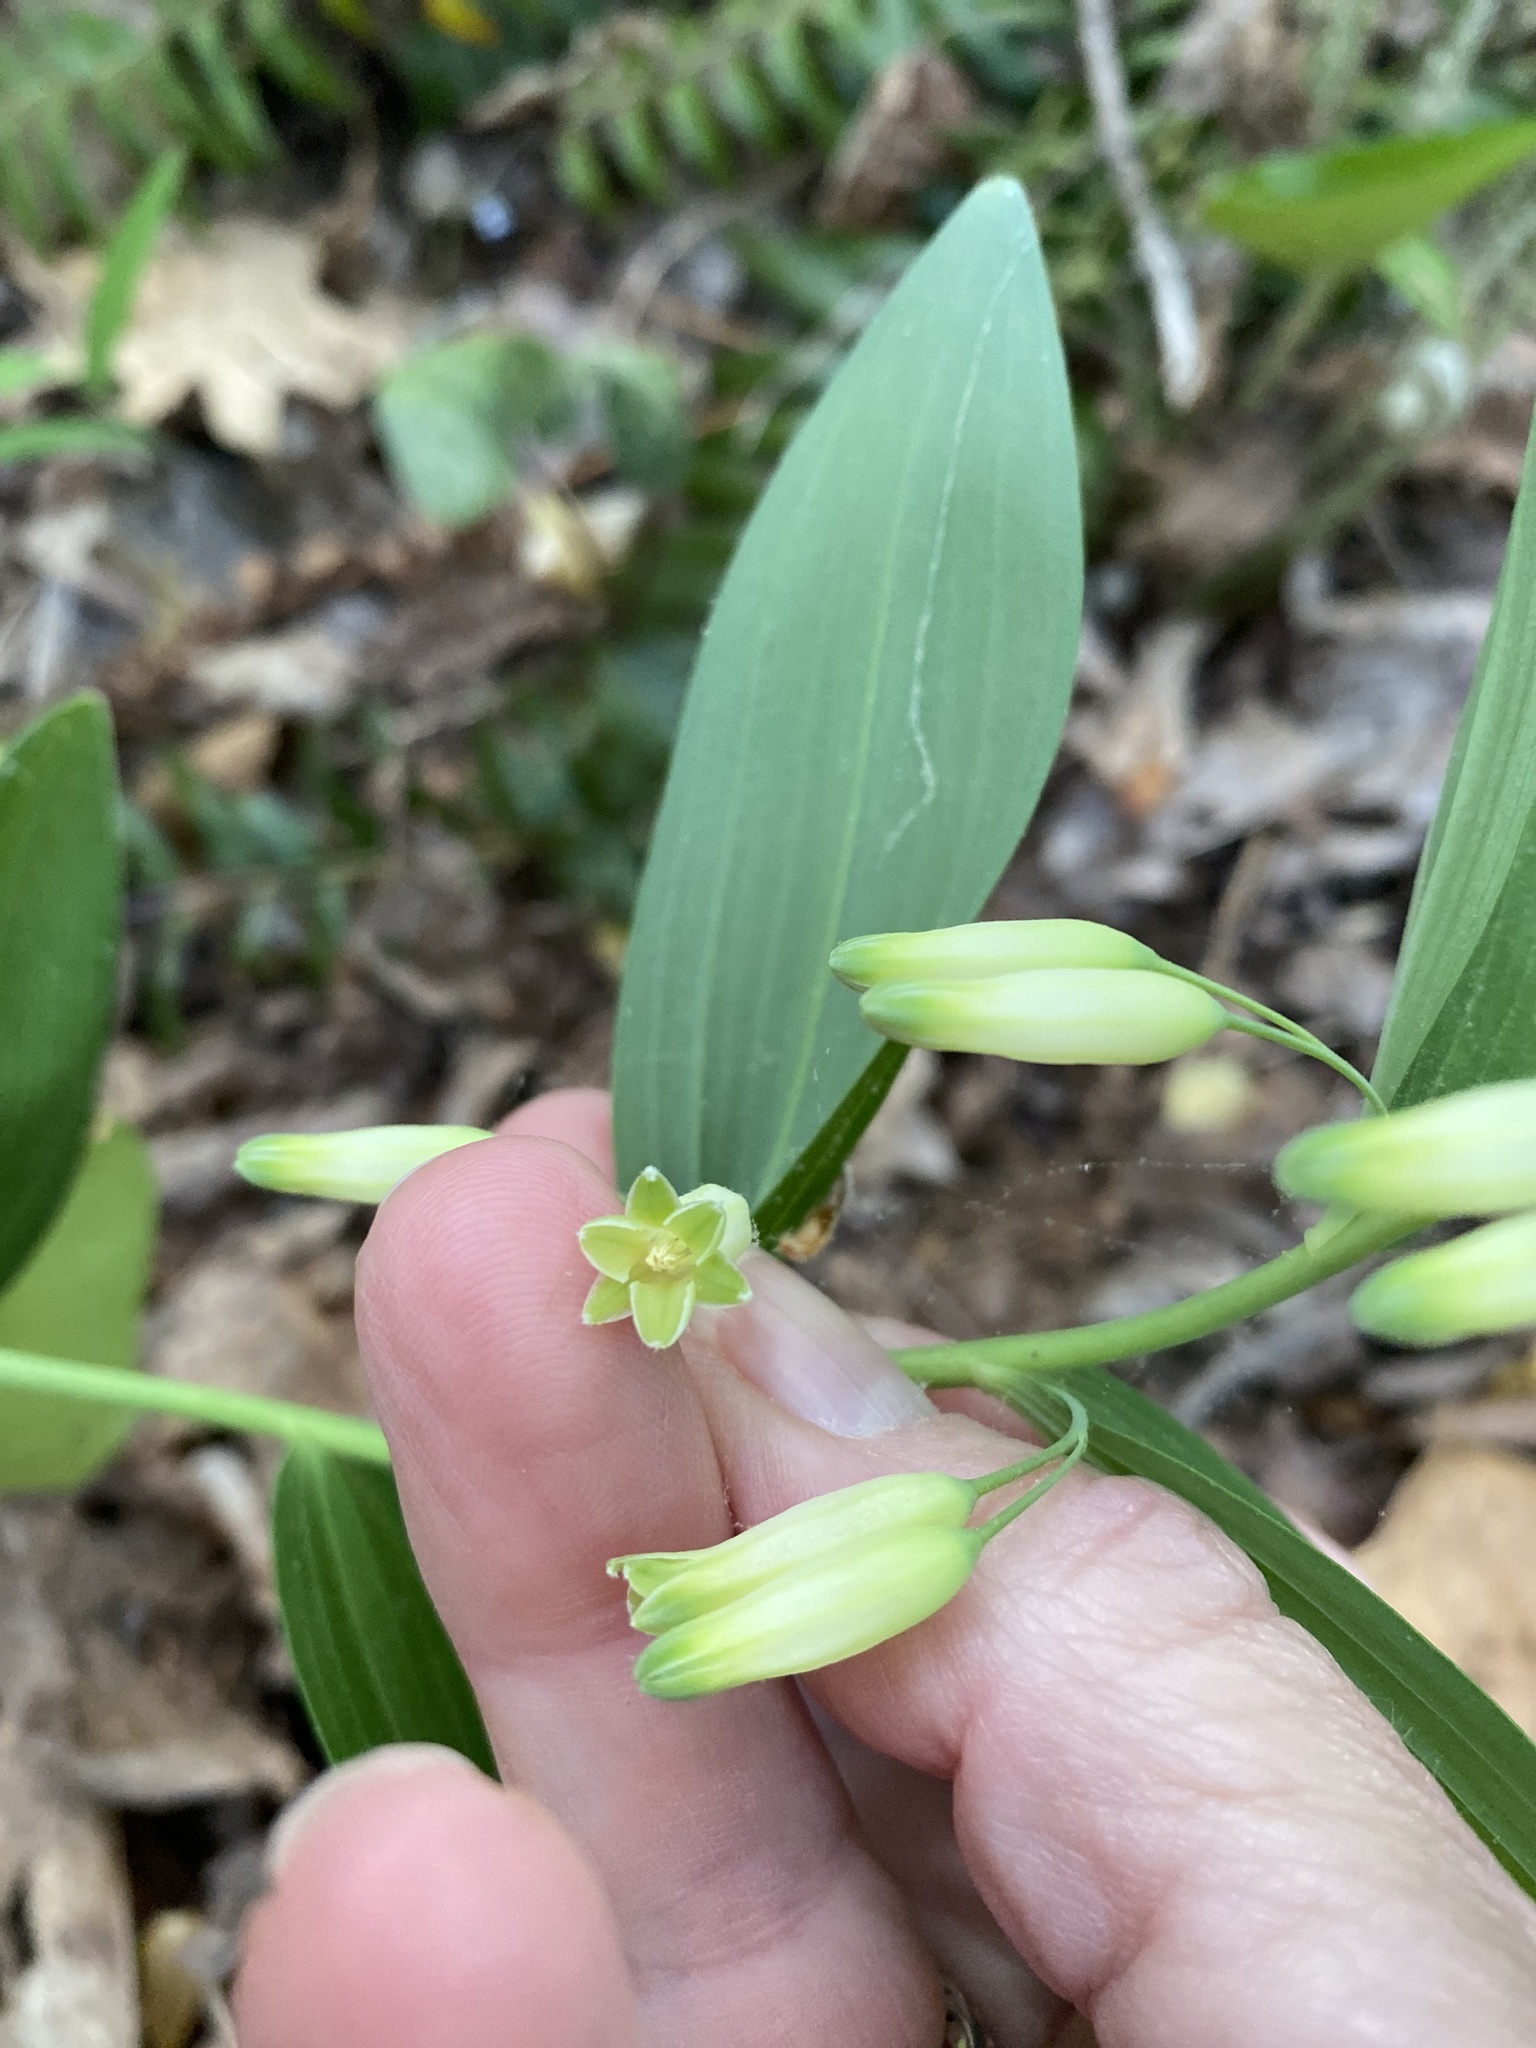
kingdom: Plantae
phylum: Tracheophyta
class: Liliopsida
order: Asparagales
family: Asparagaceae
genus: Polygonatum
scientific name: Polygonatum biflorum
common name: American solomon's-seal
